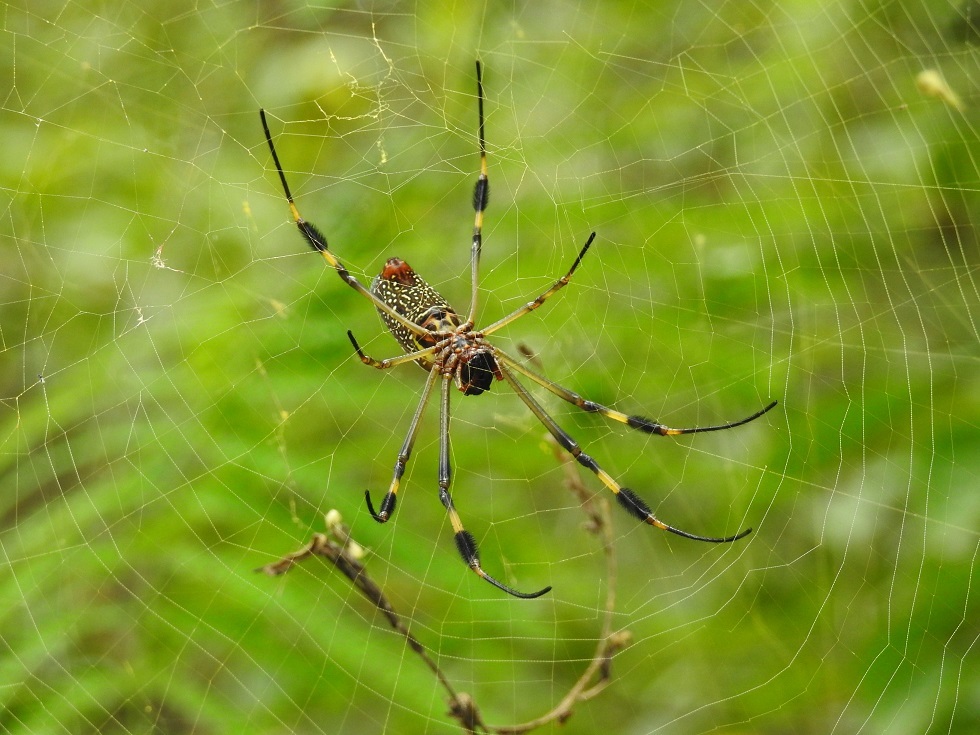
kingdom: Animalia
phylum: Arthropoda
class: Arachnida
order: Araneae
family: Araneidae
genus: Trichonephila
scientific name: Trichonephila clavipes
